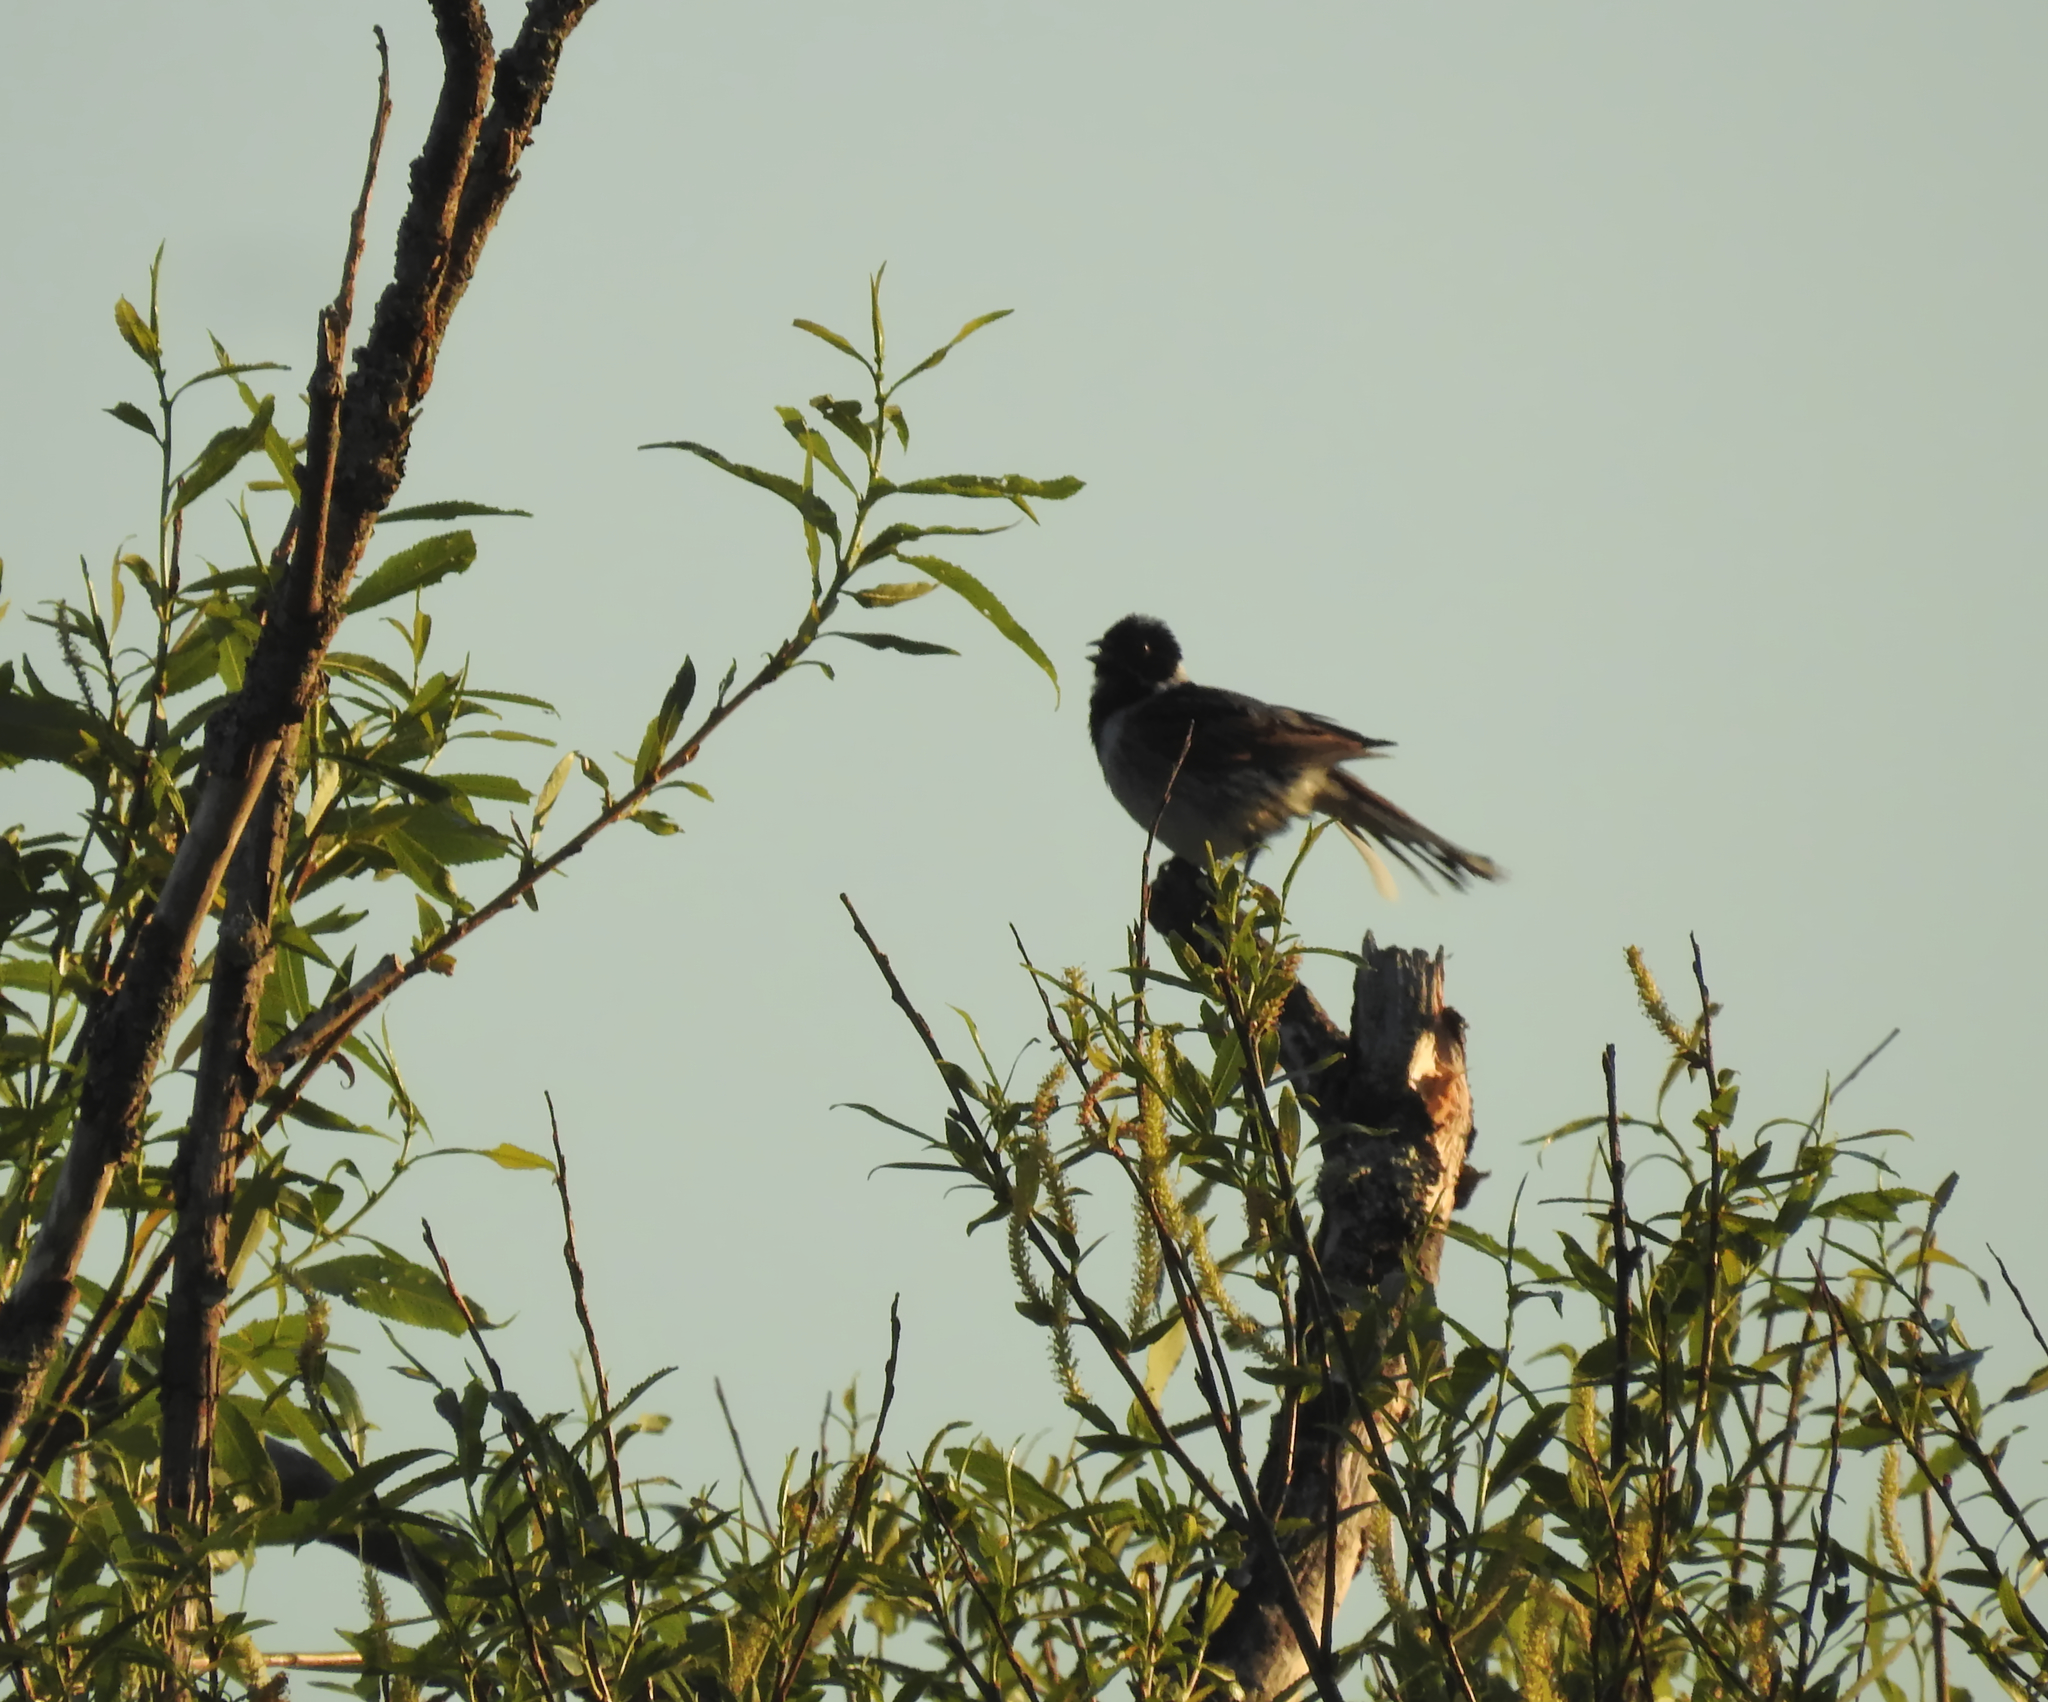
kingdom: Animalia
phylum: Chordata
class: Aves
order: Passeriformes
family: Emberizidae
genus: Emberiza
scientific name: Emberiza schoeniclus
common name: Reed bunting
